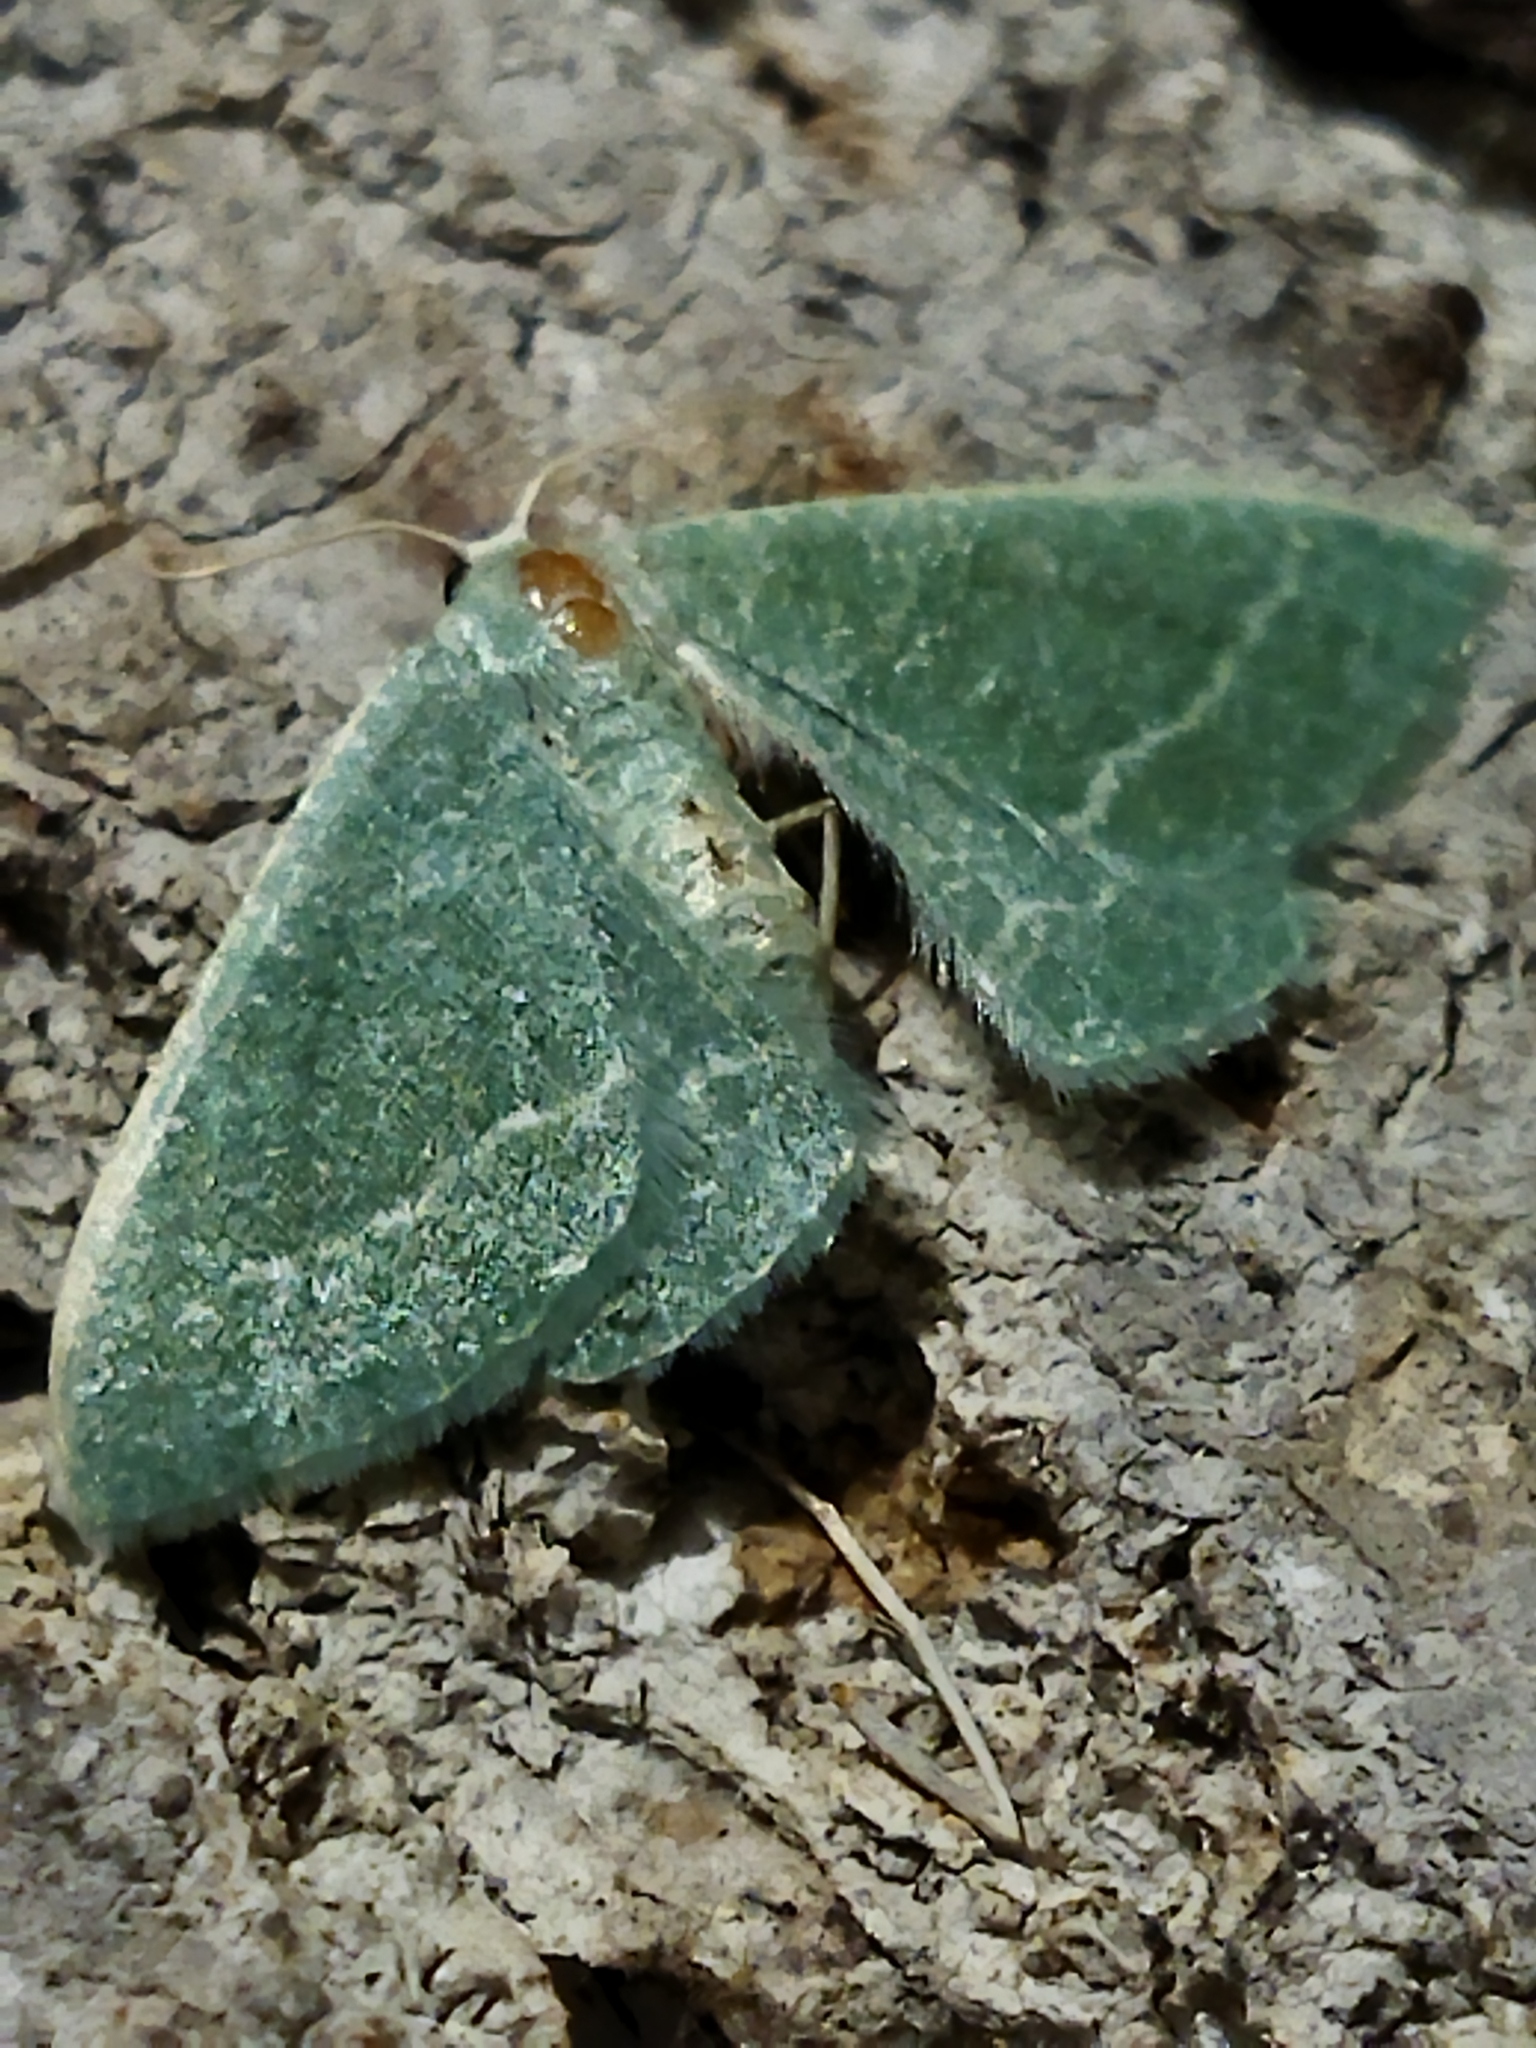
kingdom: Animalia
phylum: Arthropoda
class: Insecta
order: Lepidoptera
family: Geometridae
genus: Chlorissa
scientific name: Chlorissa etruscaria
